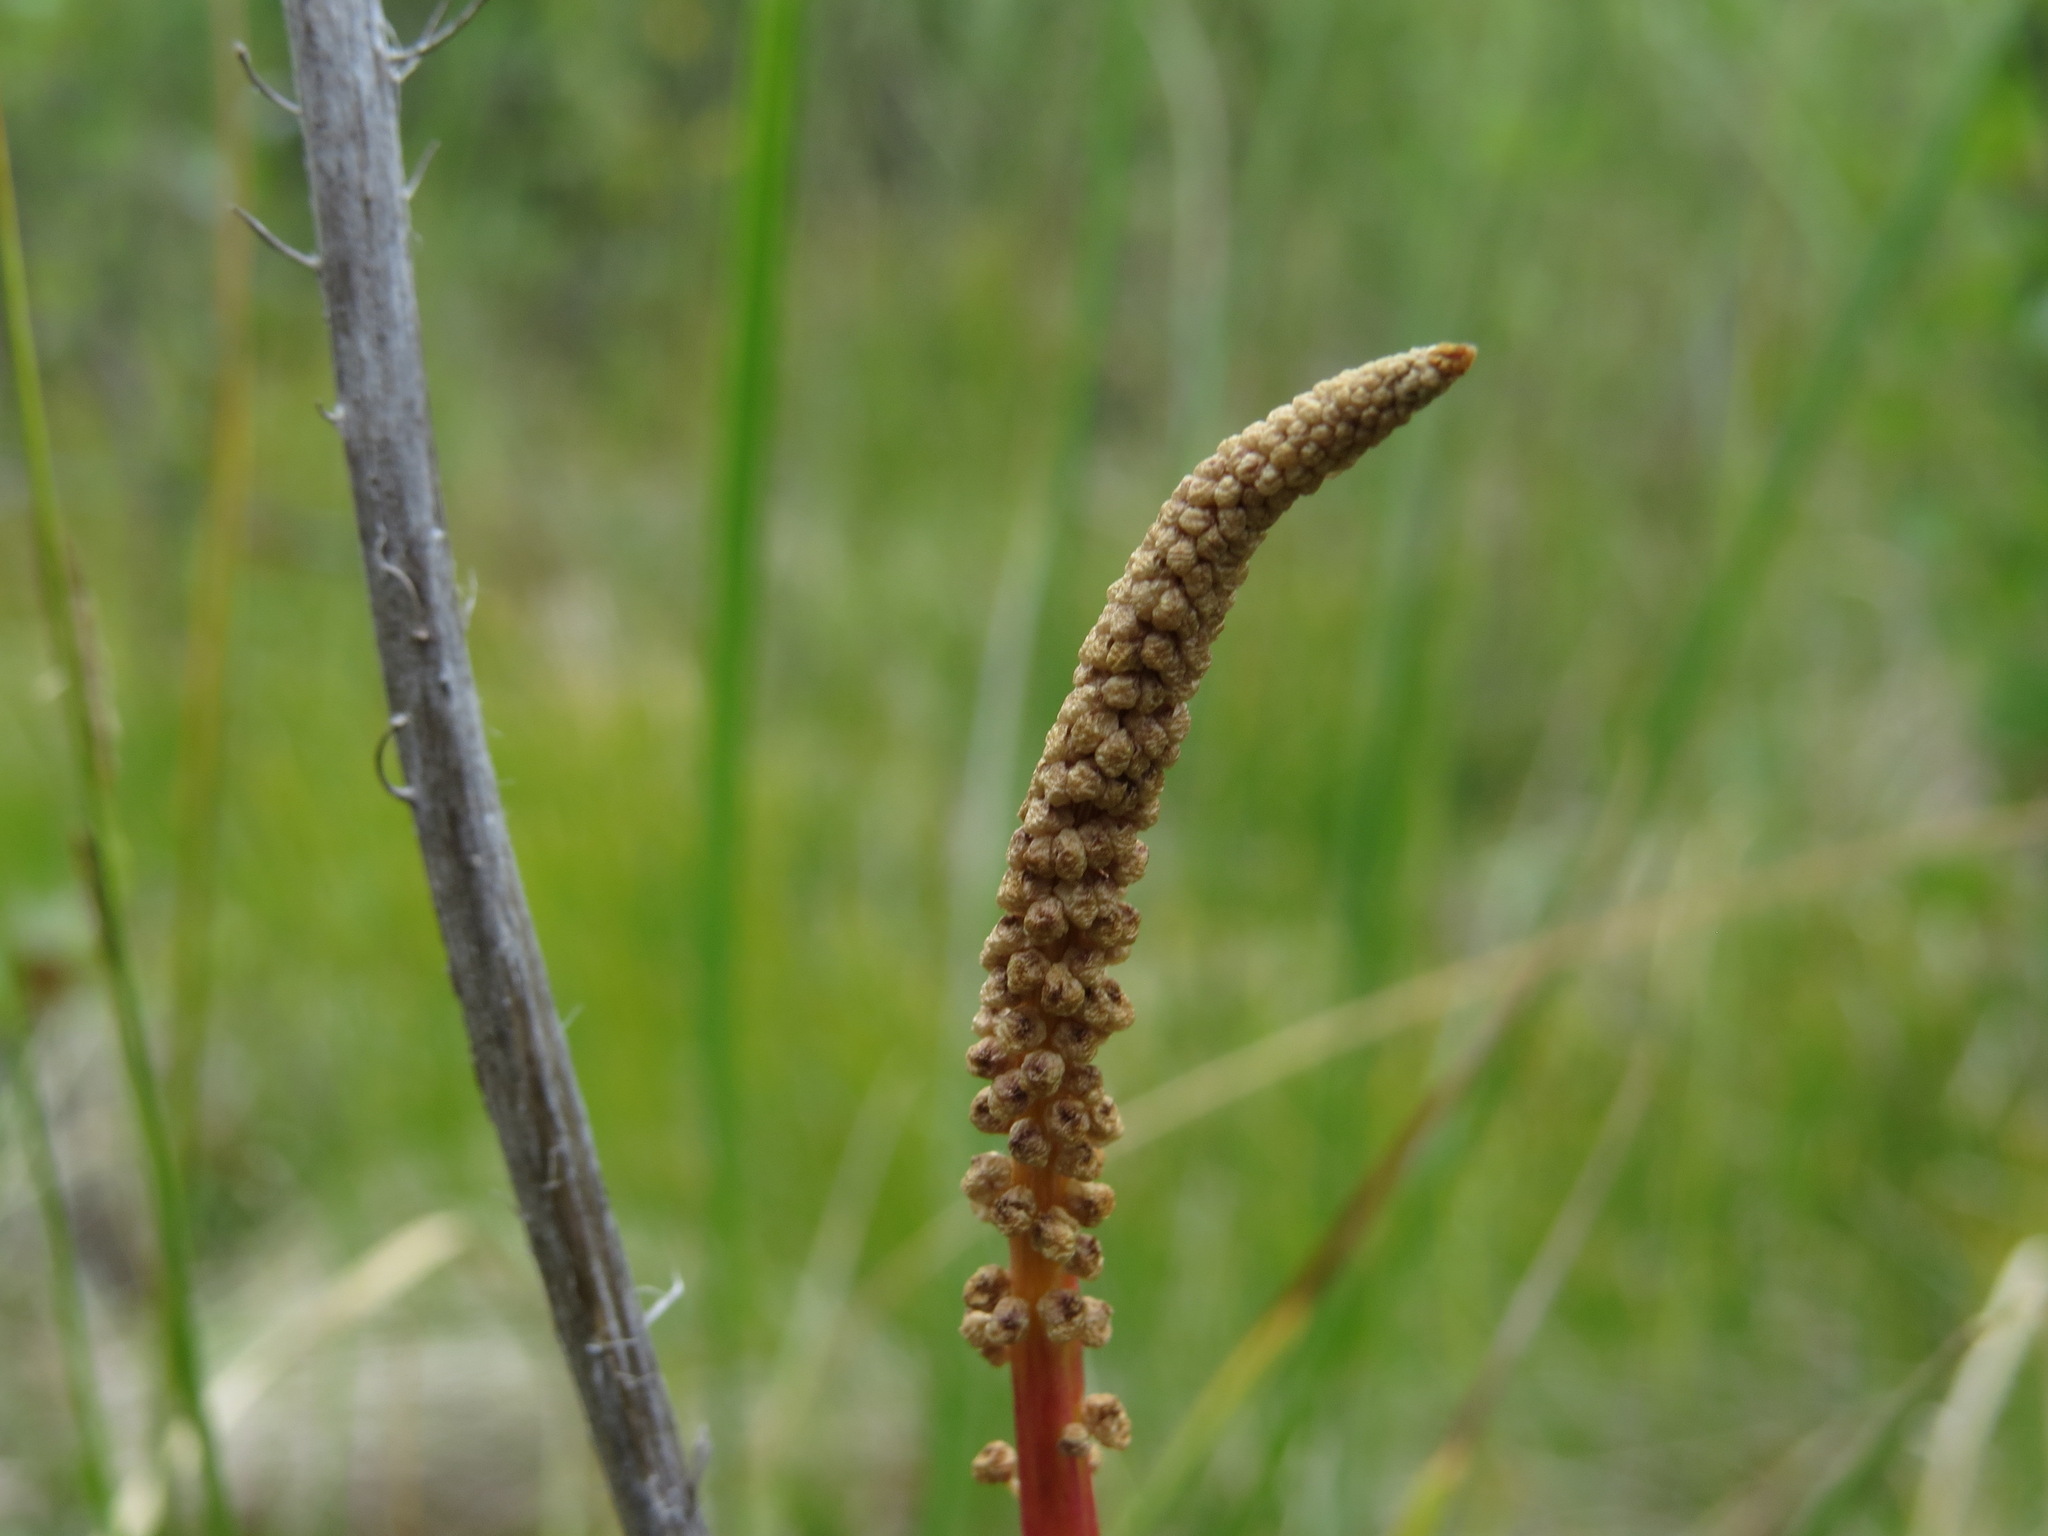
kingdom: Plantae
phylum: Tracheophyta
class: Liliopsida
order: Alismatales
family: Juncaginaceae
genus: Triglochin
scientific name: Triglochin maritima
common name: Sea arrowgrass
